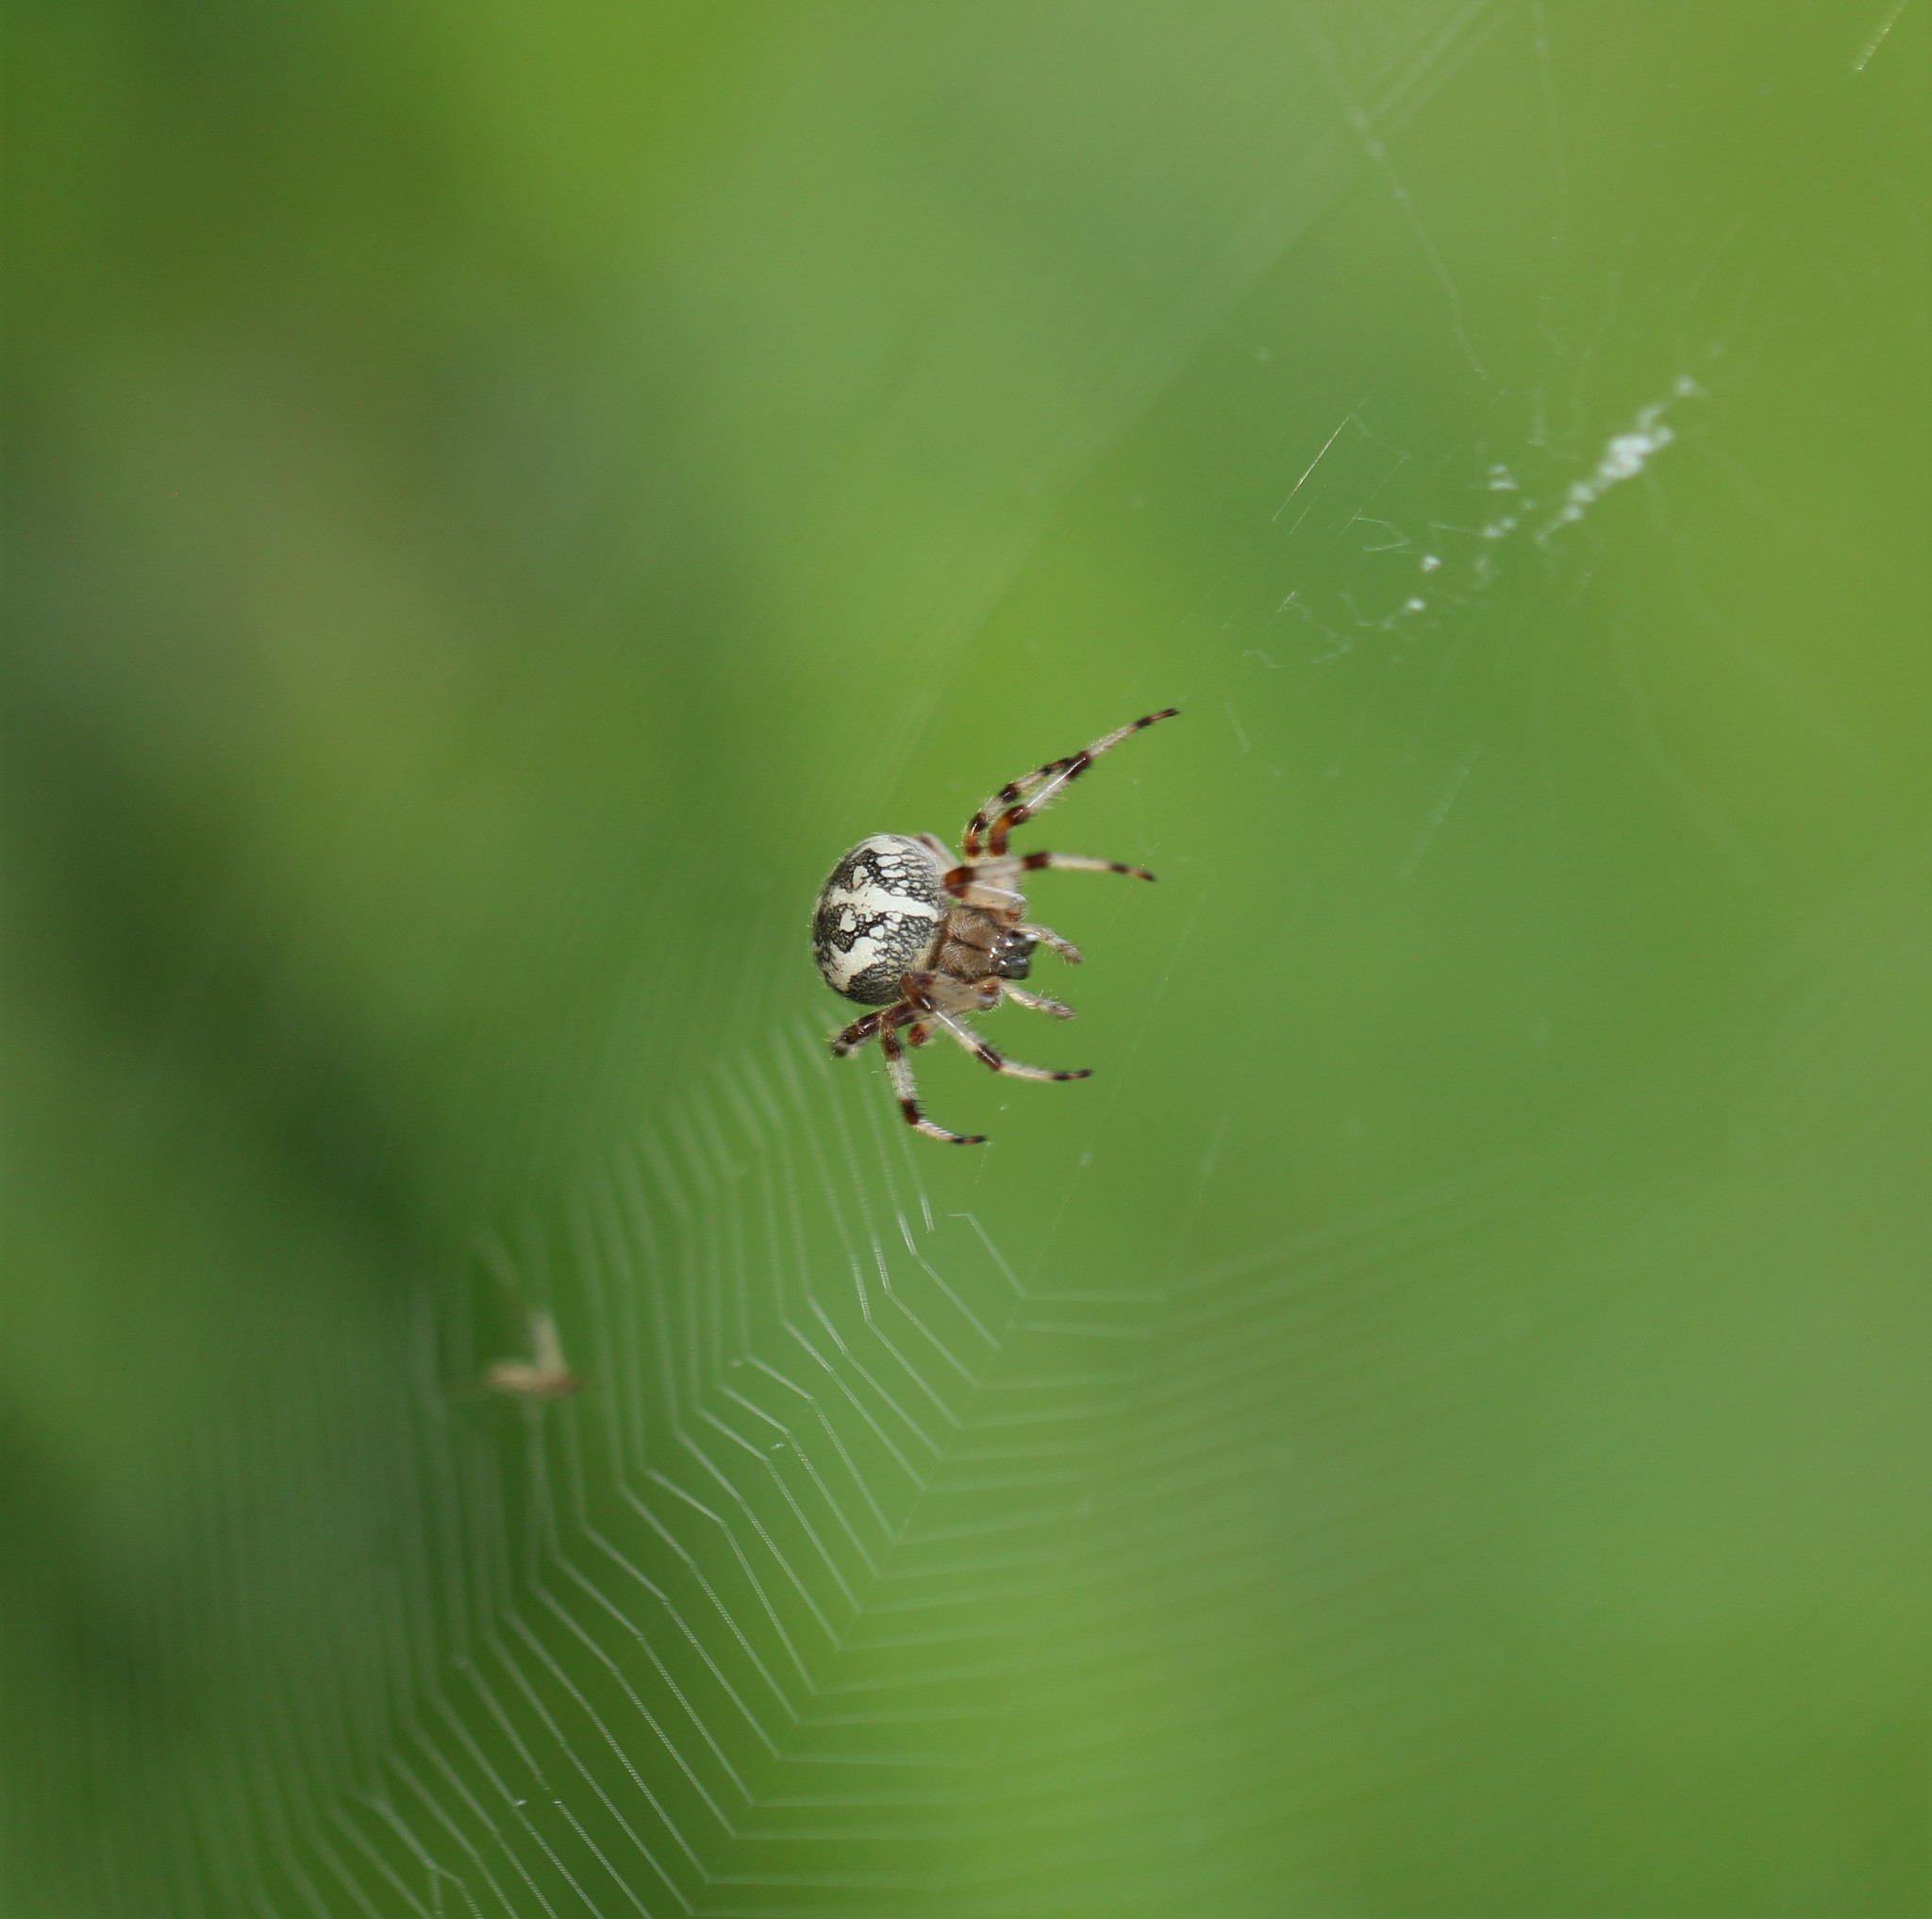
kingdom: Animalia
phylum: Arthropoda
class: Arachnida
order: Araneae
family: Araneidae
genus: Araneus
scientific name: Araneus marmoreus
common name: Marbled orbweaver
